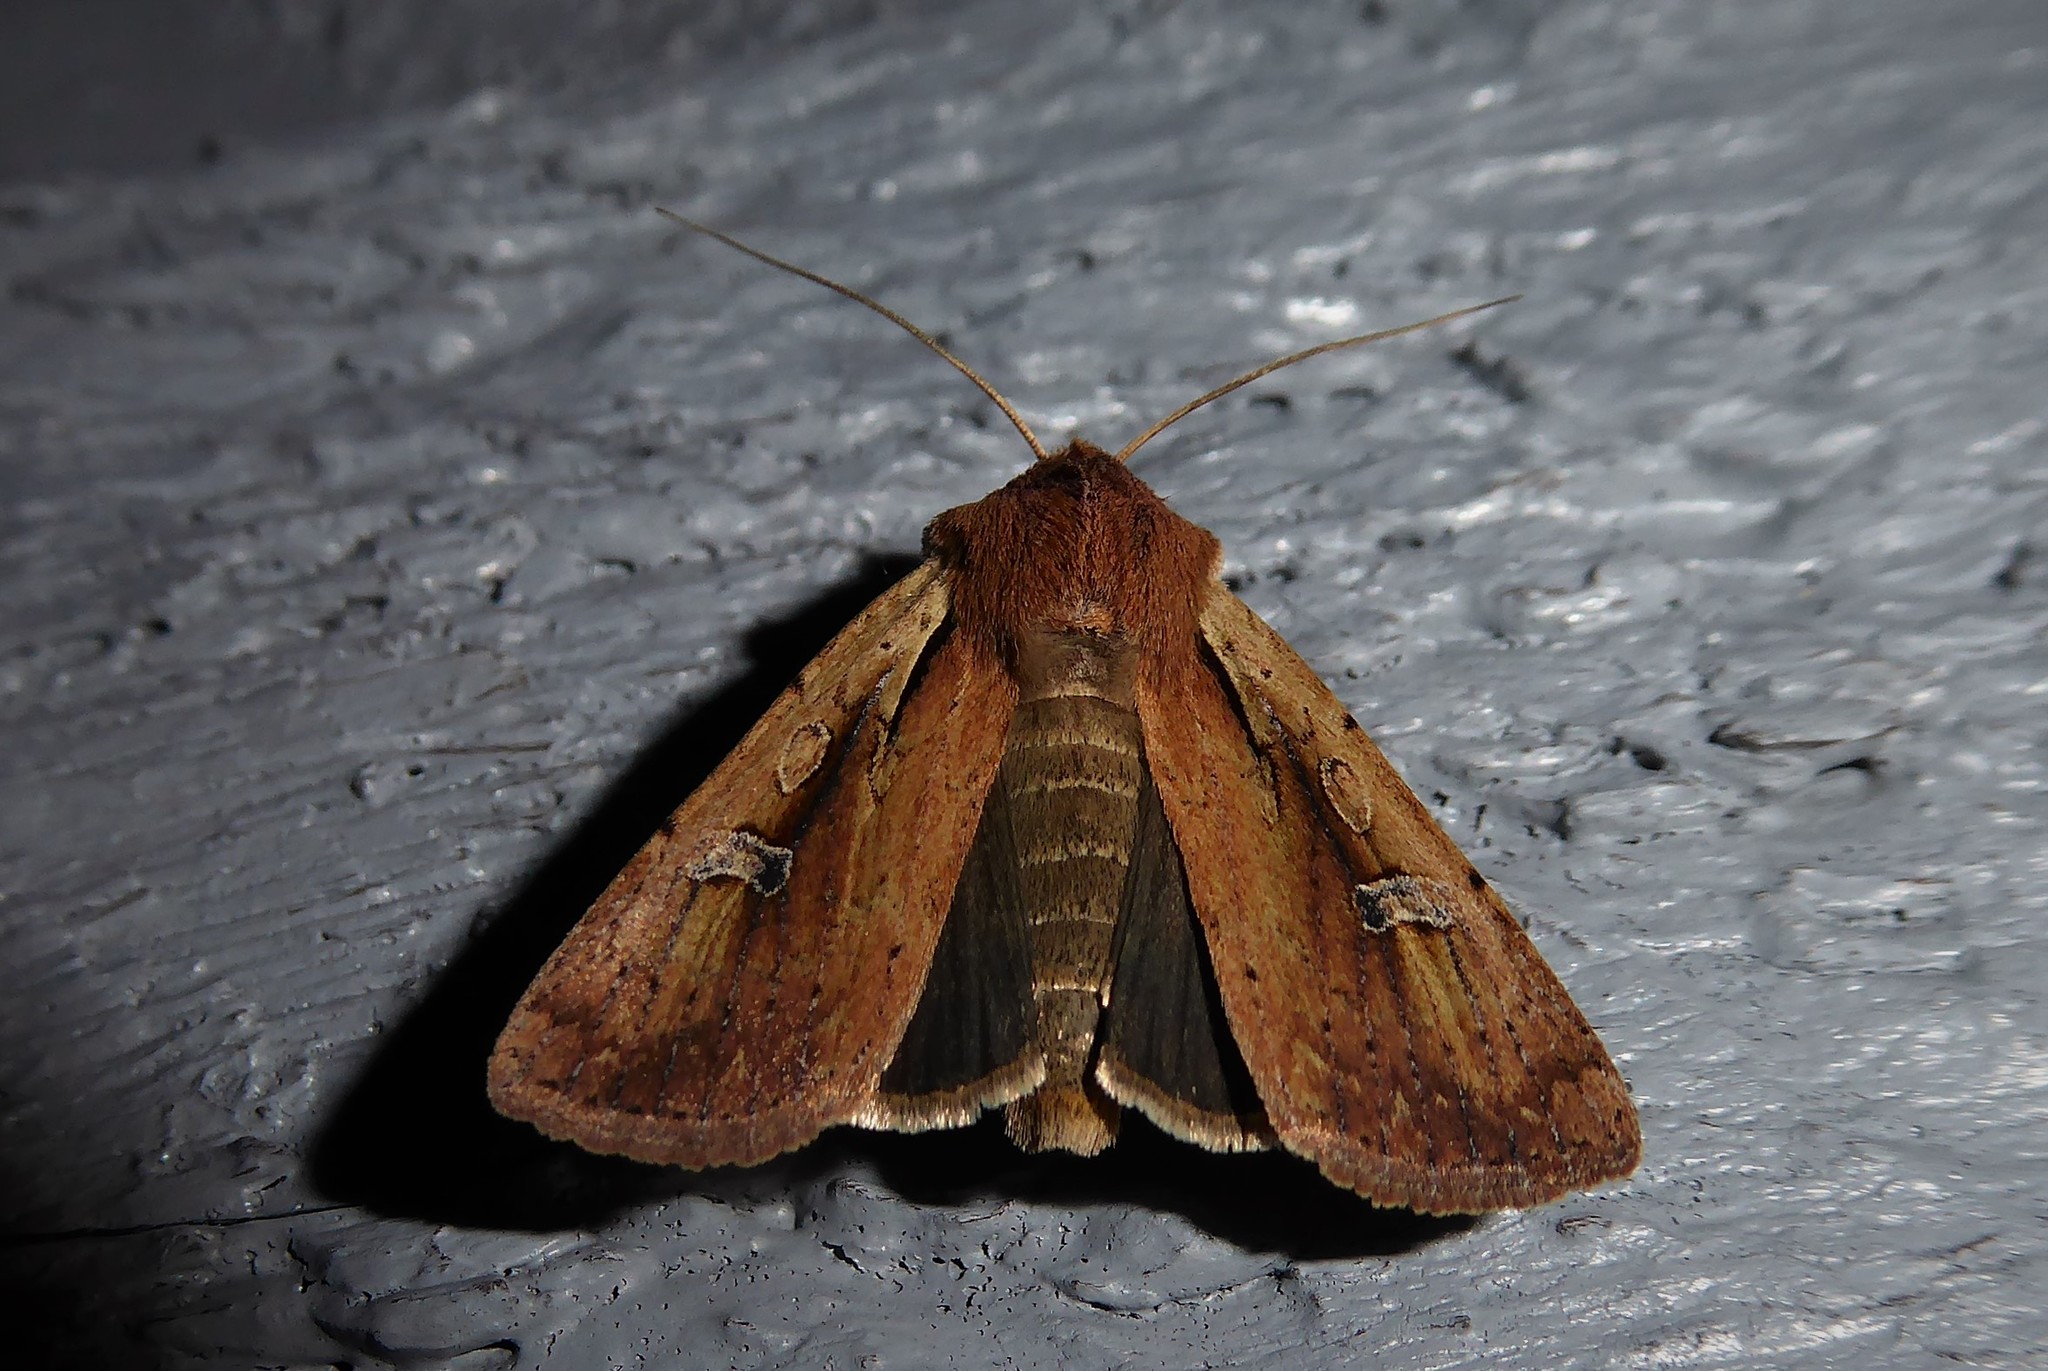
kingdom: Animalia
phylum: Arthropoda
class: Insecta
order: Lepidoptera
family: Noctuidae
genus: Ichneutica
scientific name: Ichneutica atristriga
